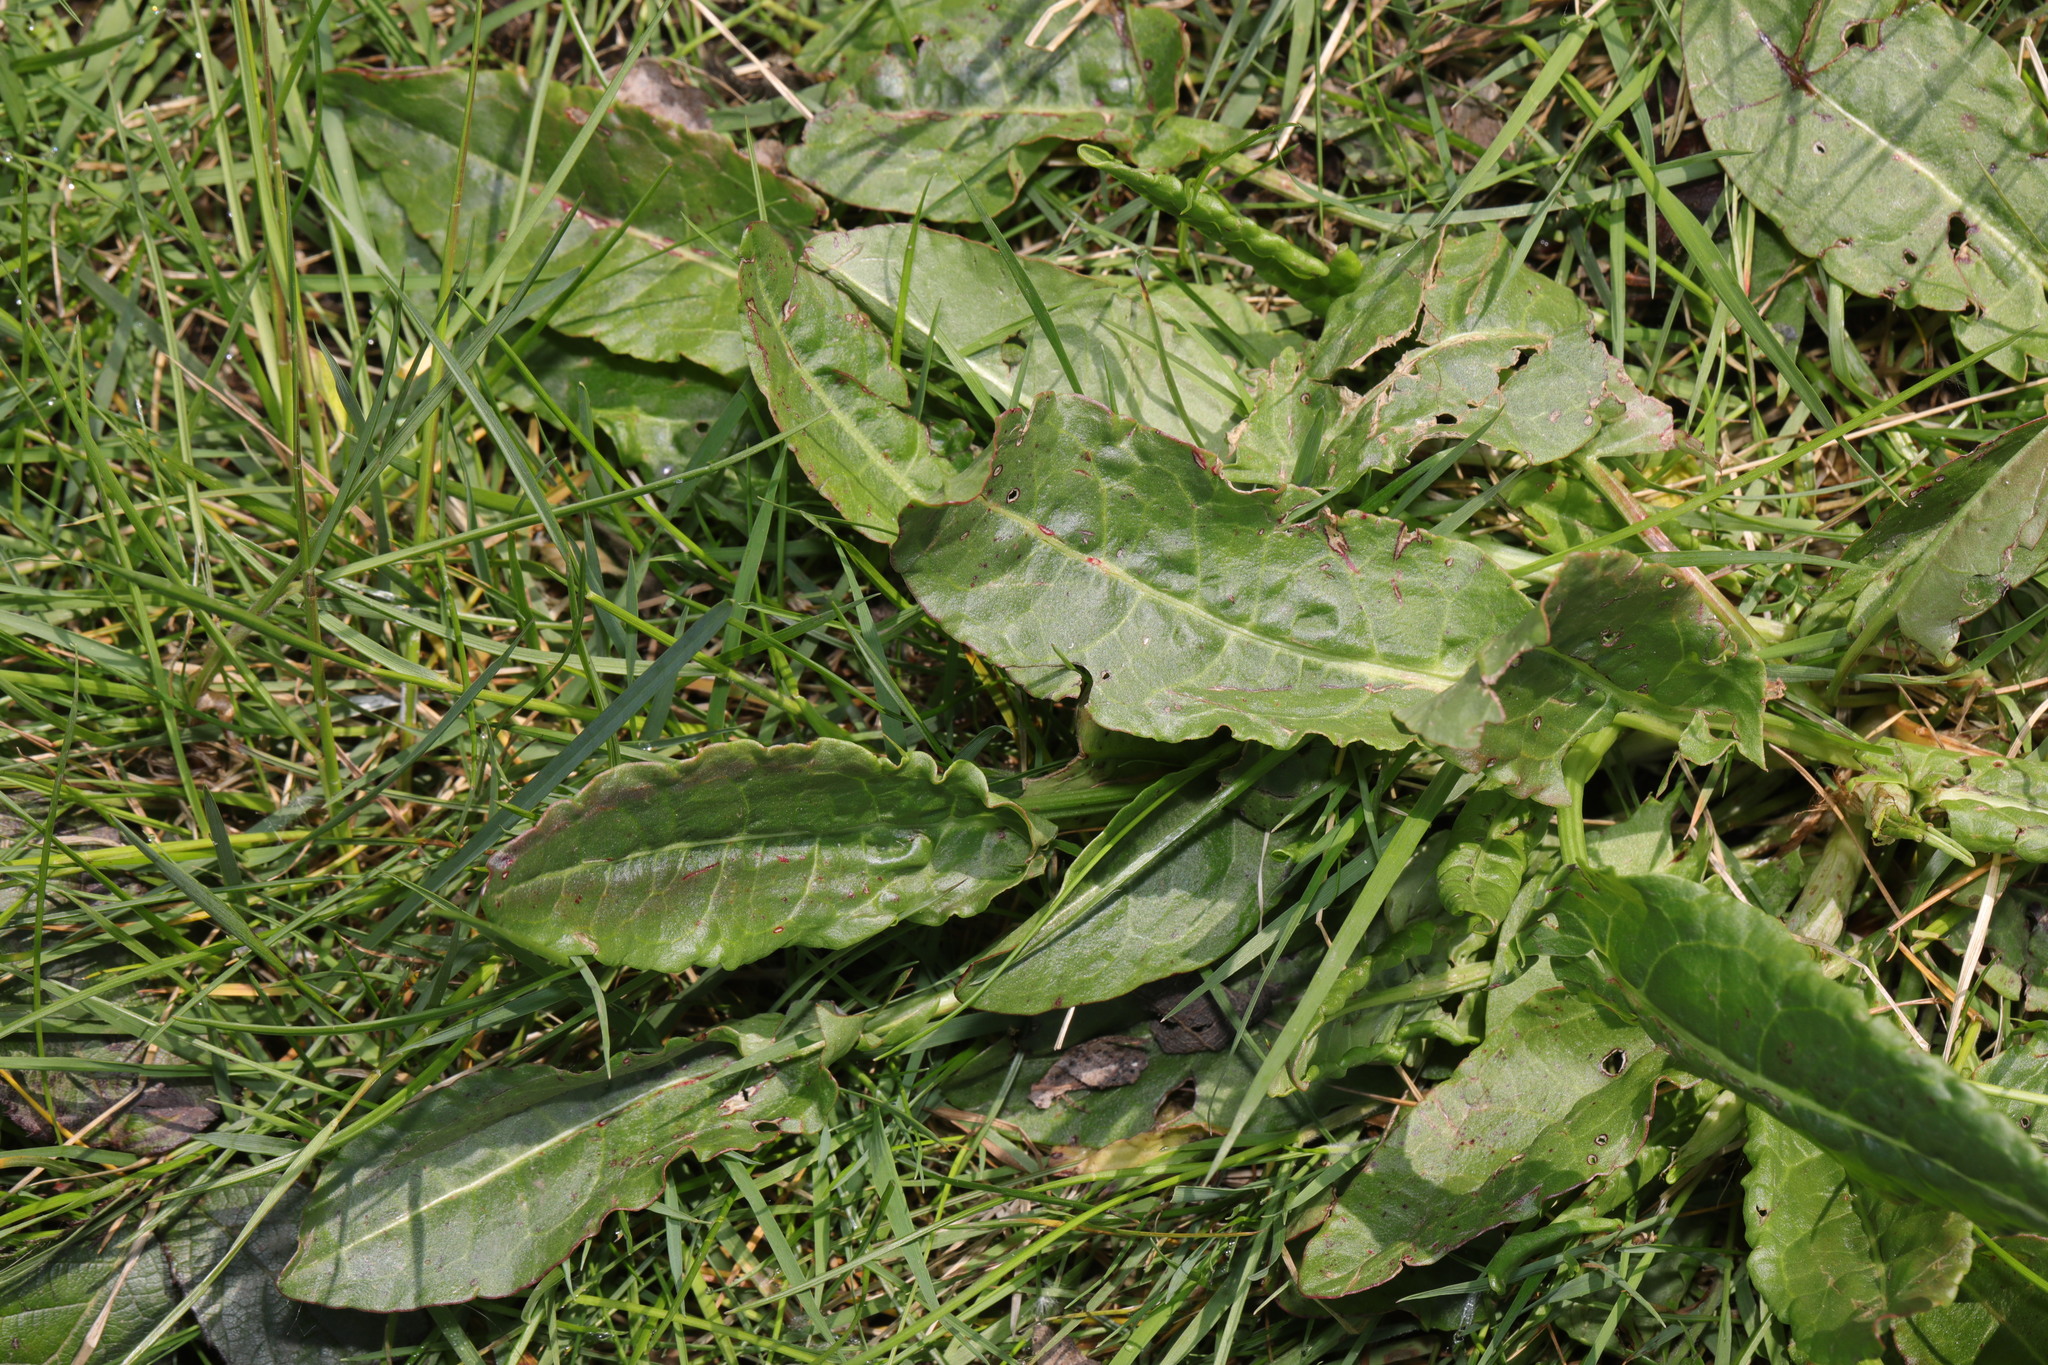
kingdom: Plantae
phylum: Tracheophyta
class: Magnoliopsida
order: Caryophyllales
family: Polygonaceae
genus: Rumex
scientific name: Rumex acetosa
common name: Garden sorrel
